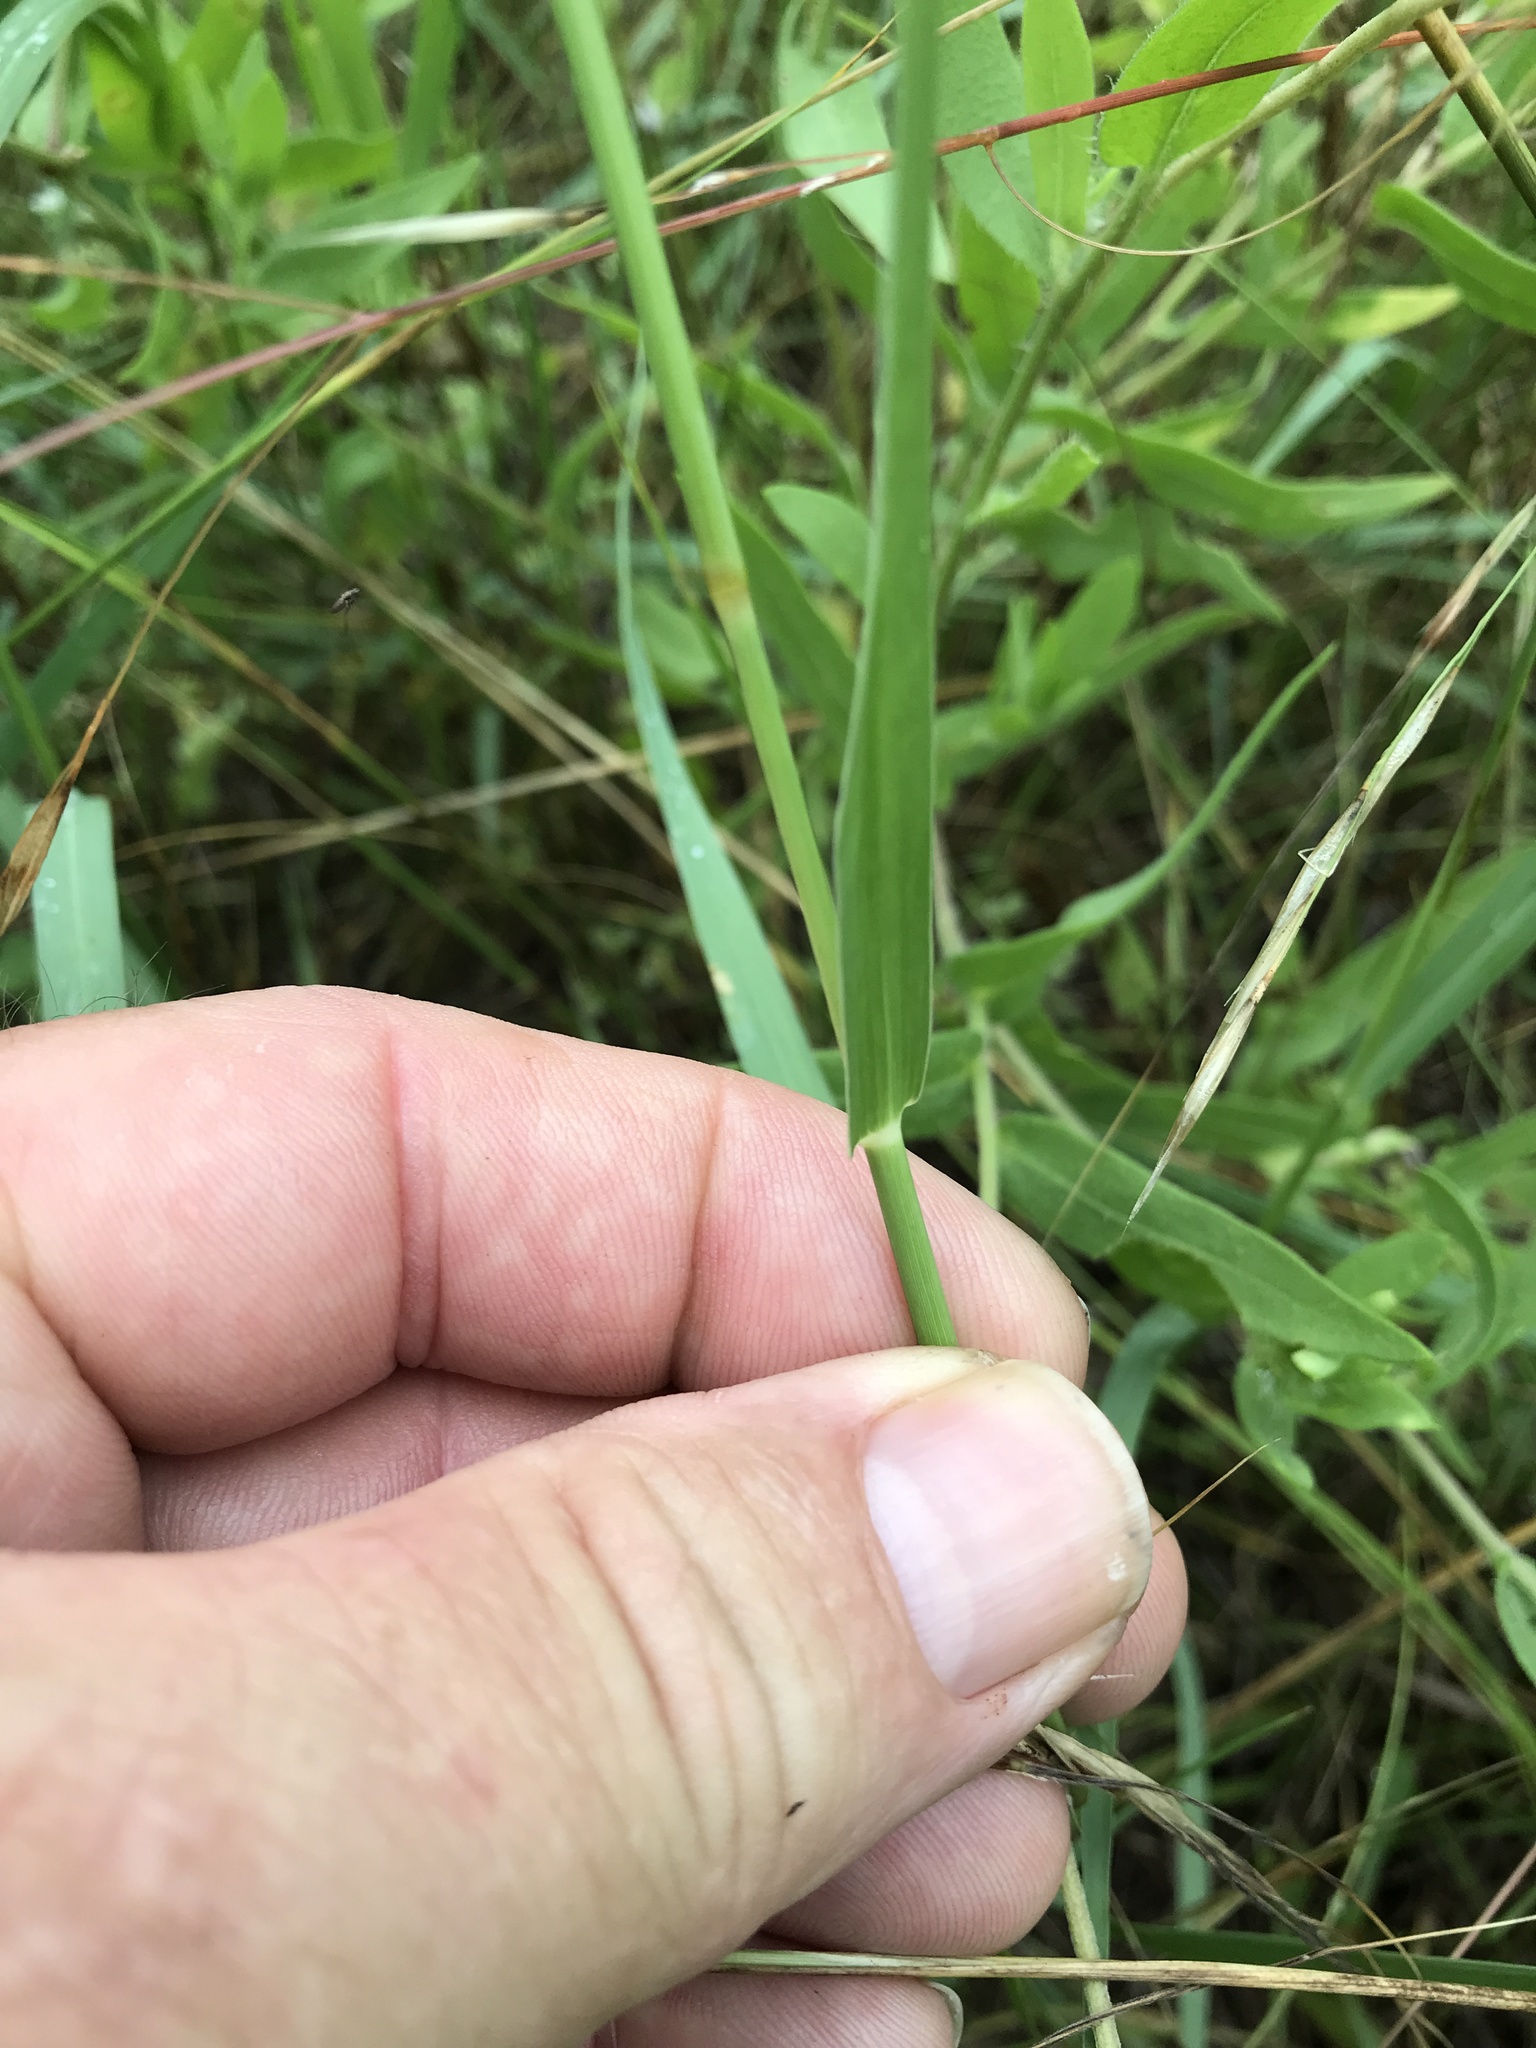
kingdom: Plantae
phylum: Tracheophyta
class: Liliopsida
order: Poales
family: Poaceae
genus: Hopia
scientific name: Hopia obtusa
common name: Vine-mesquite
